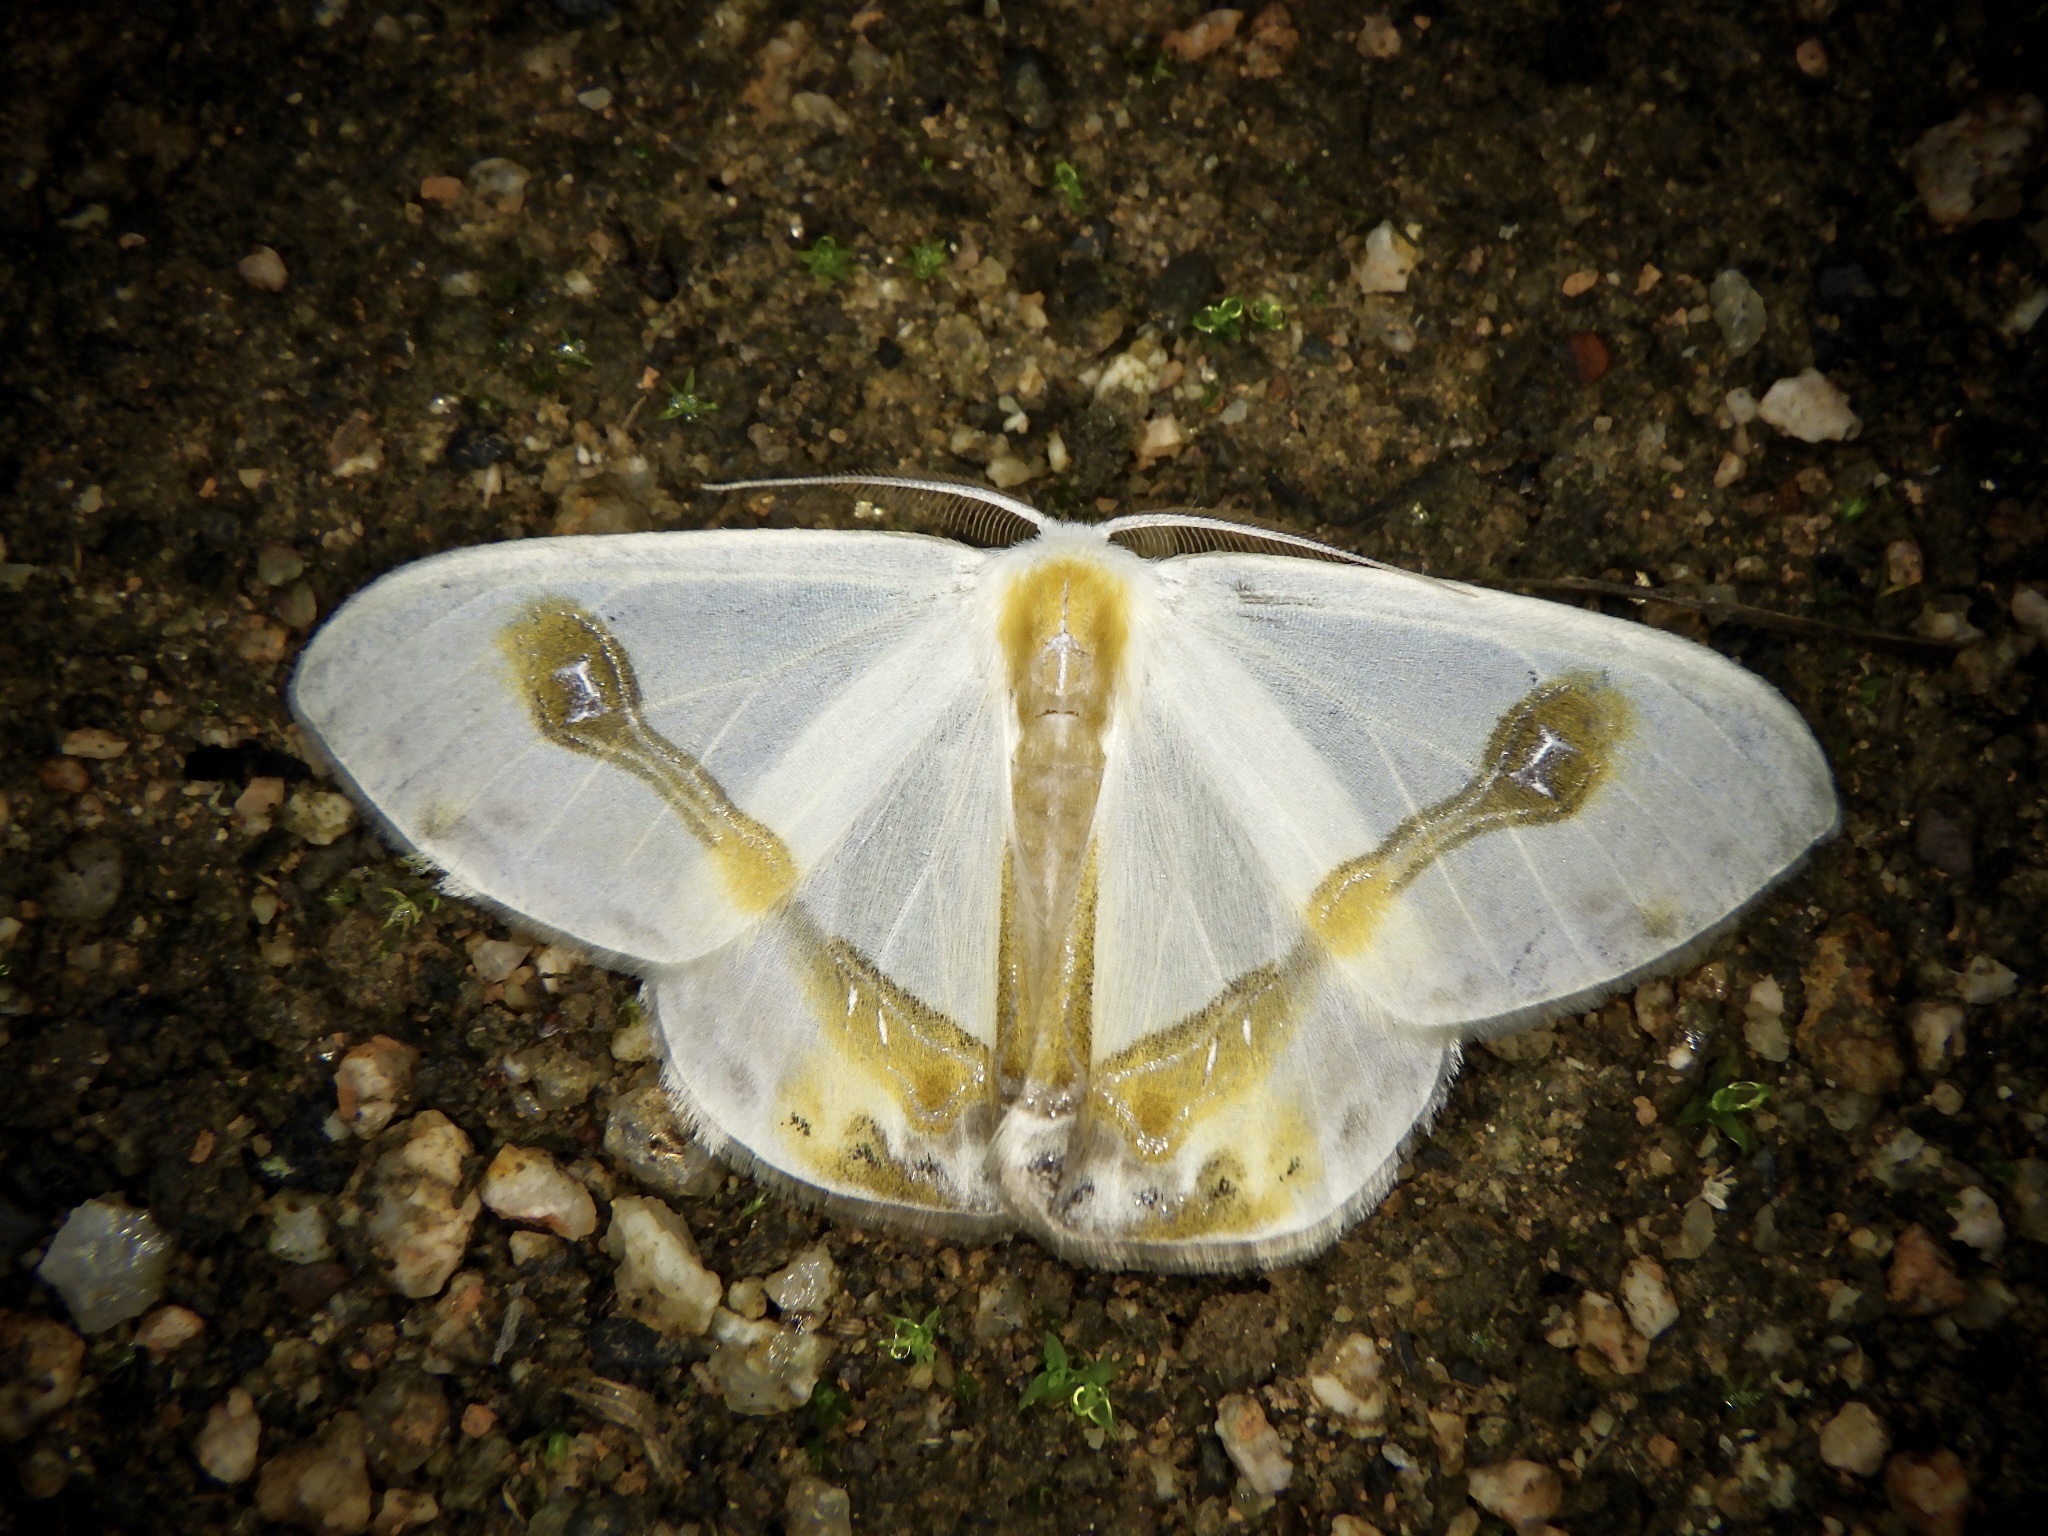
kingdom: Animalia
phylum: Arthropoda
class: Insecta
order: Lepidoptera
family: Drepanidae
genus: Macrocilix
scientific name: Macrocilix mysticata
